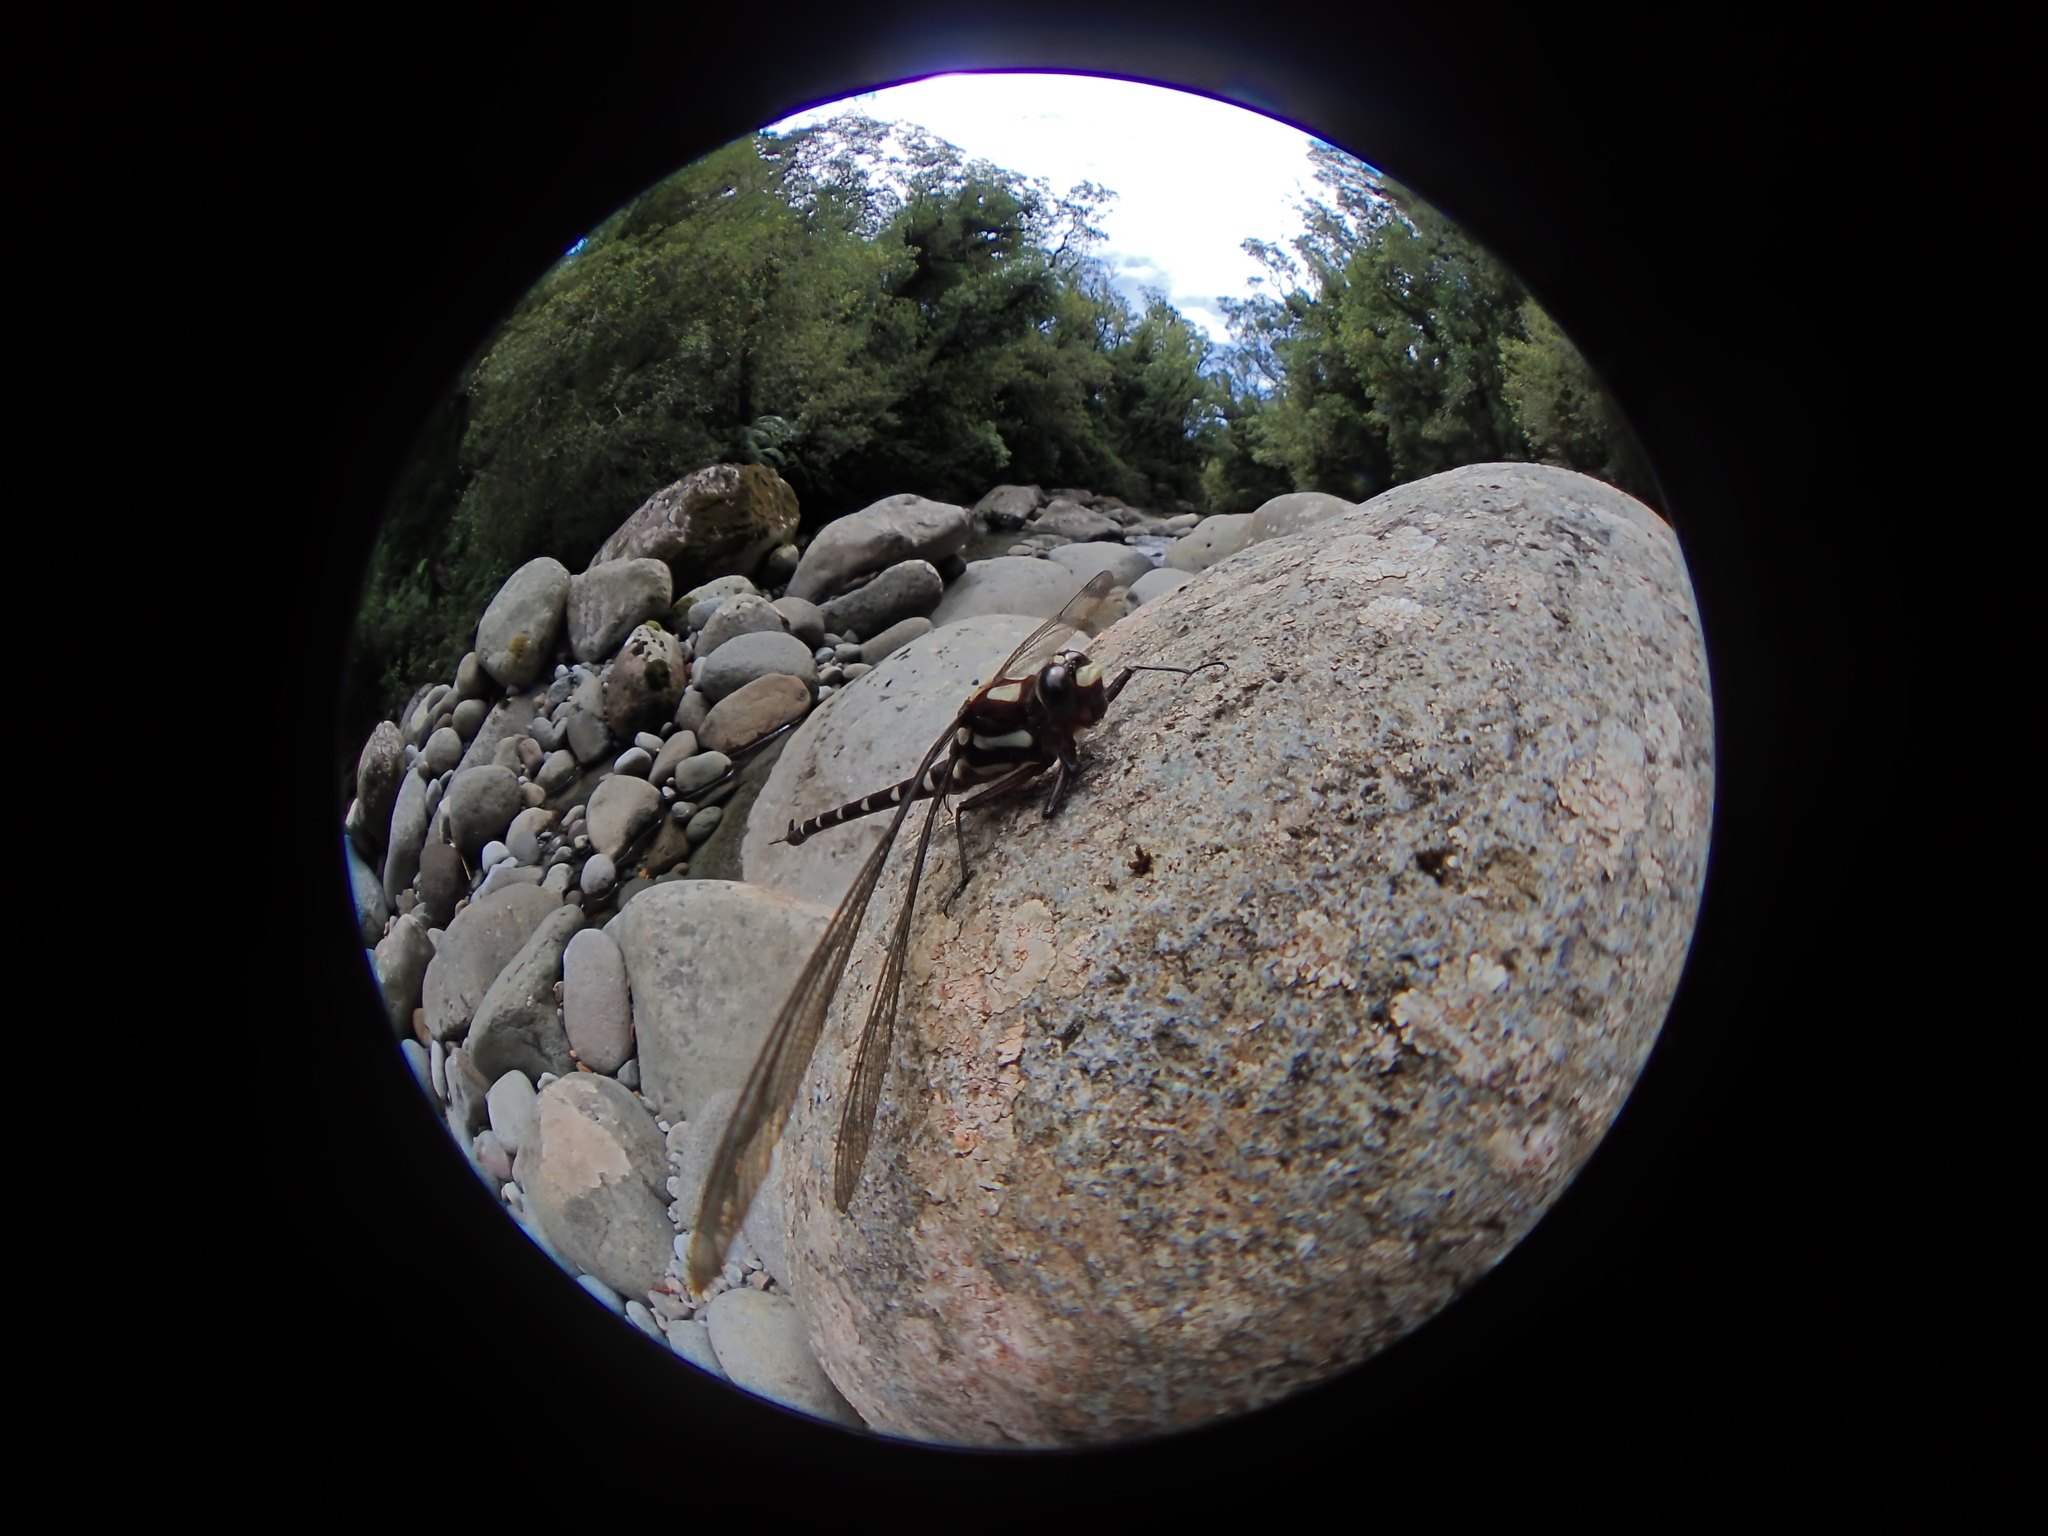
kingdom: Animalia
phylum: Arthropoda
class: Insecta
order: Odonata
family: Petaluridae
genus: Uropetala
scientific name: Uropetala carovei
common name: Bush giant dragonfly
